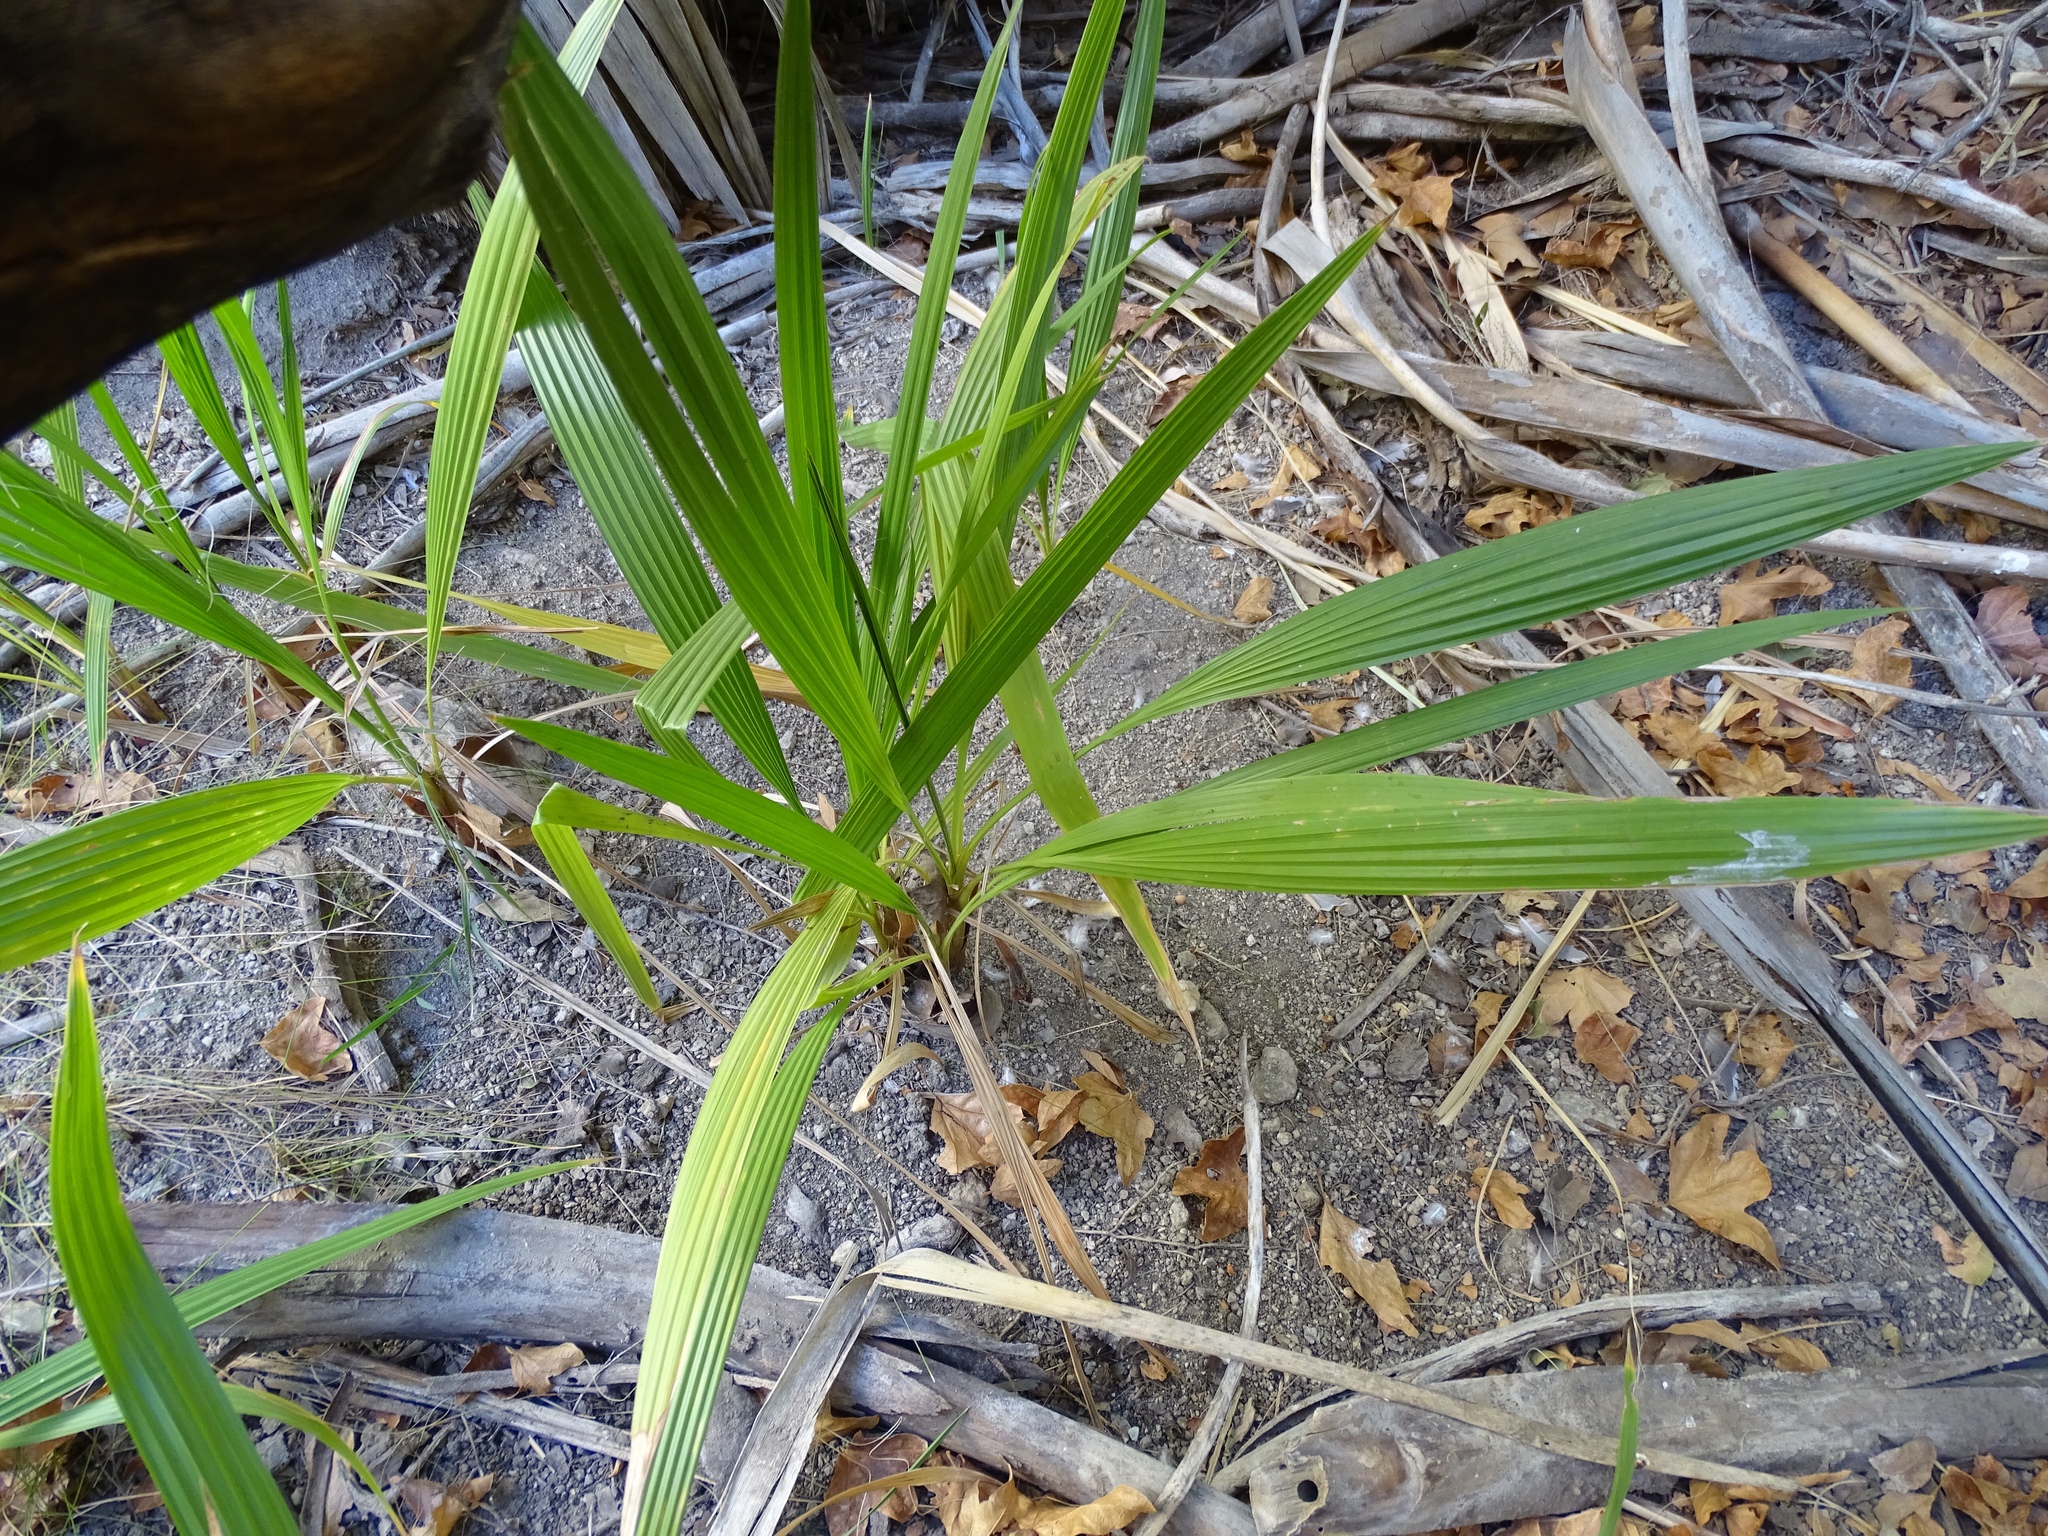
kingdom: Plantae
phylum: Tracheophyta
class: Liliopsida
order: Arecales
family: Arecaceae
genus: Washingtonia
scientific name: Washingtonia filifera
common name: California fan palm
